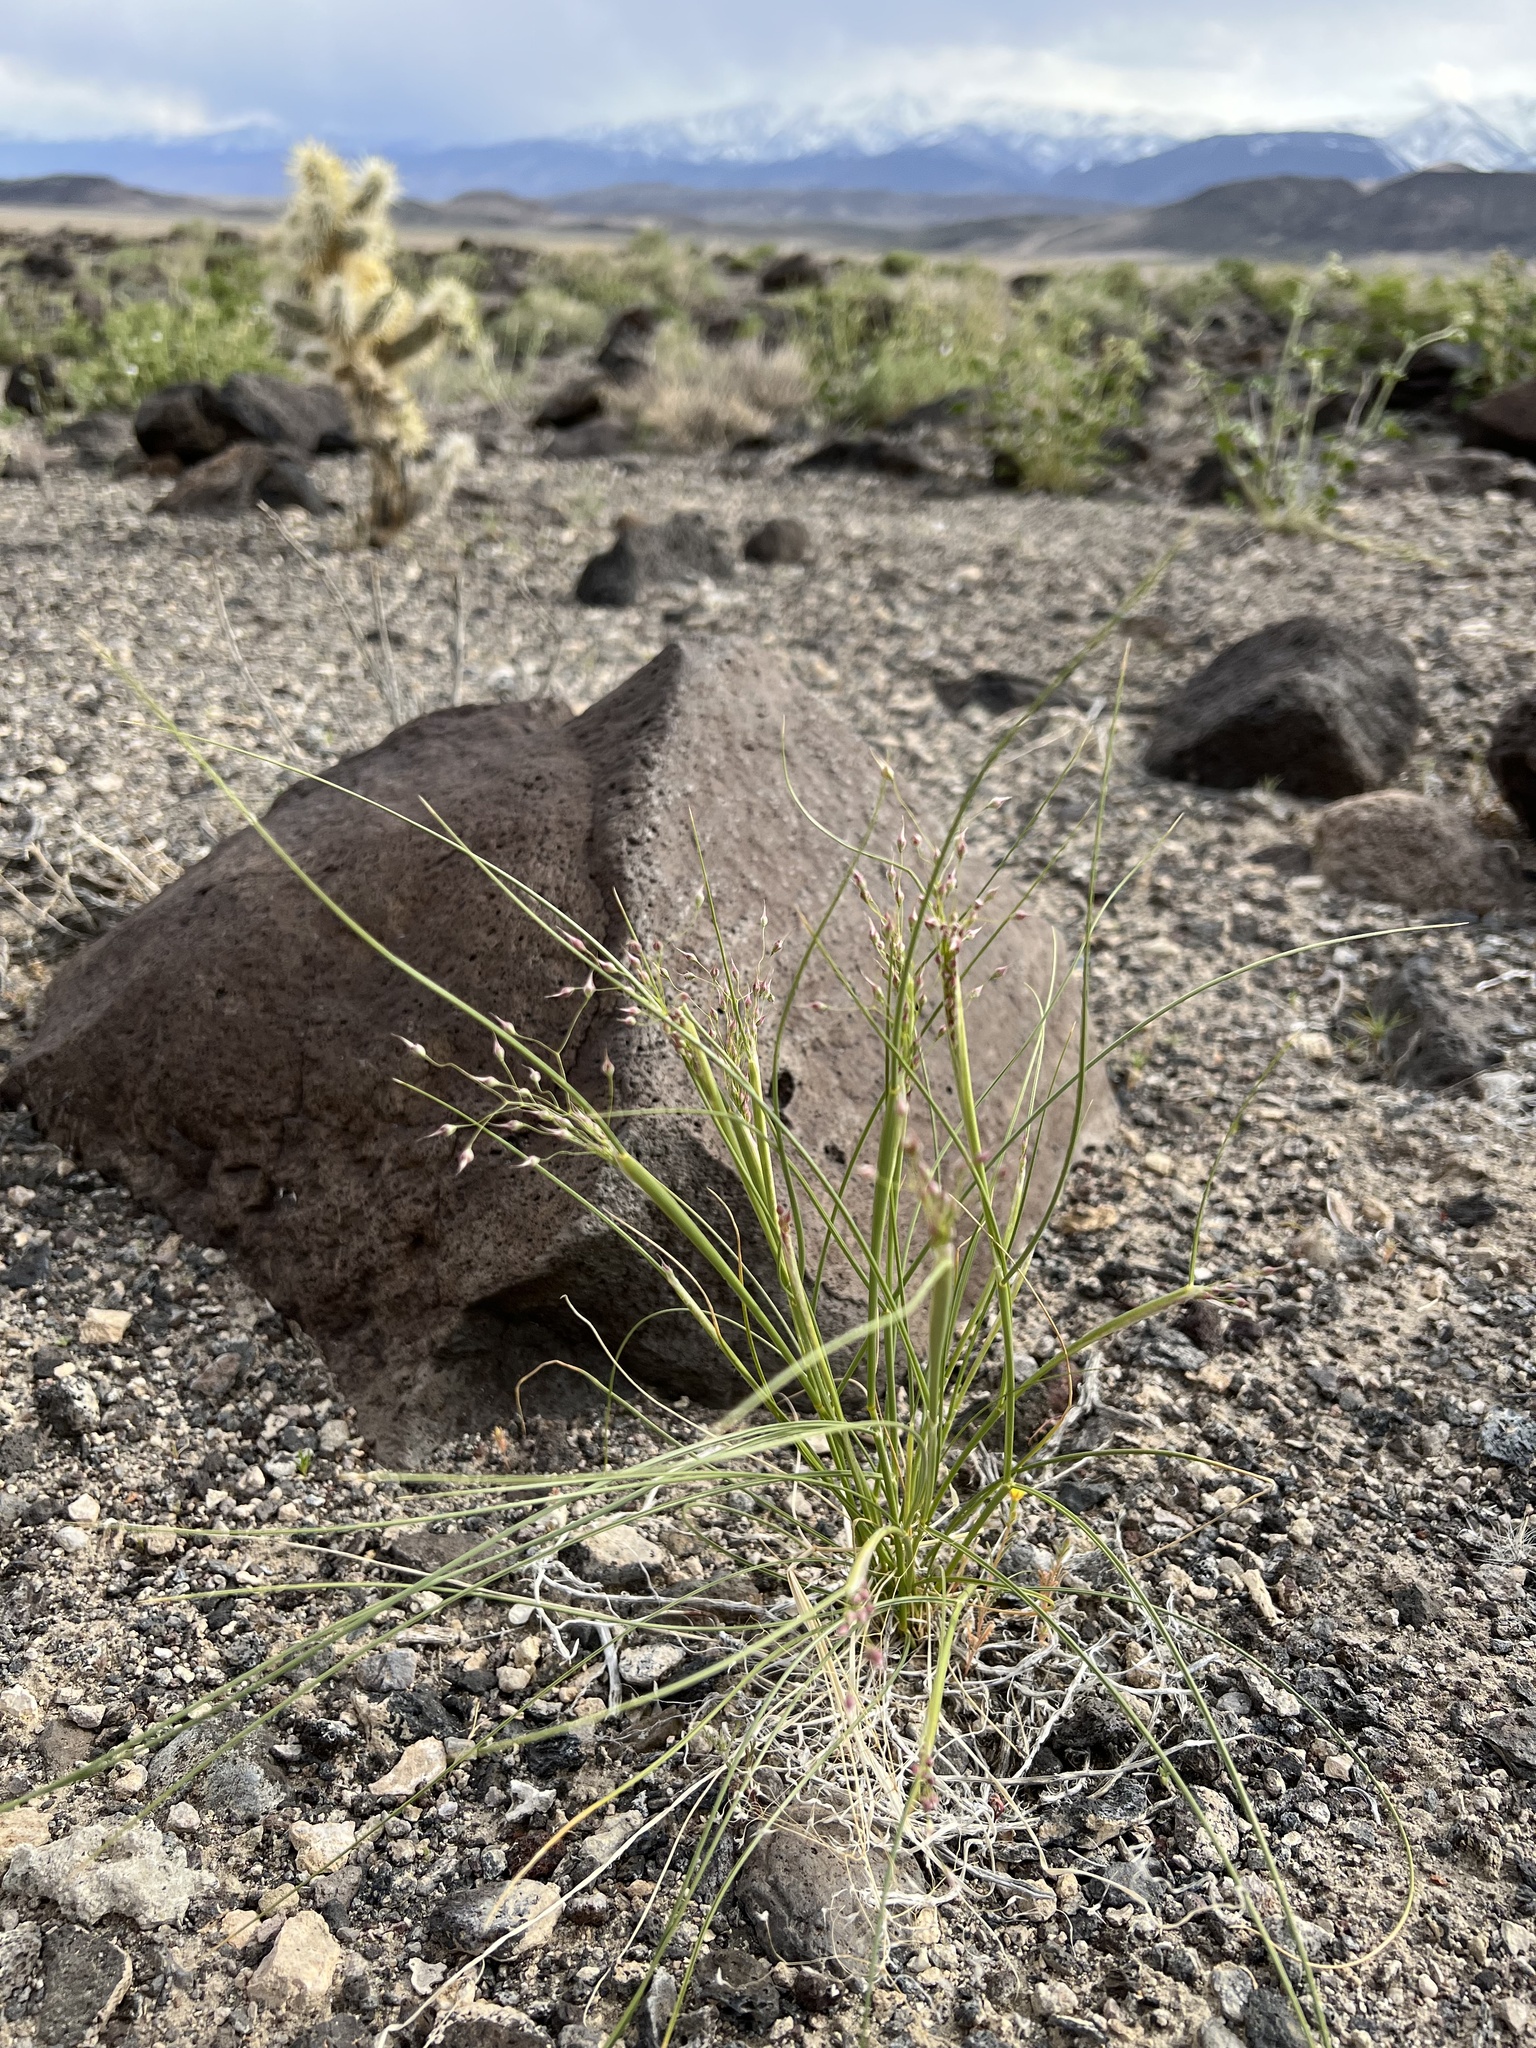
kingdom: Plantae
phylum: Tracheophyta
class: Liliopsida
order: Poales
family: Poaceae
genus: Eriocoma
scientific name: Eriocoma hymenoides
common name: Indian mountain ricegrass
